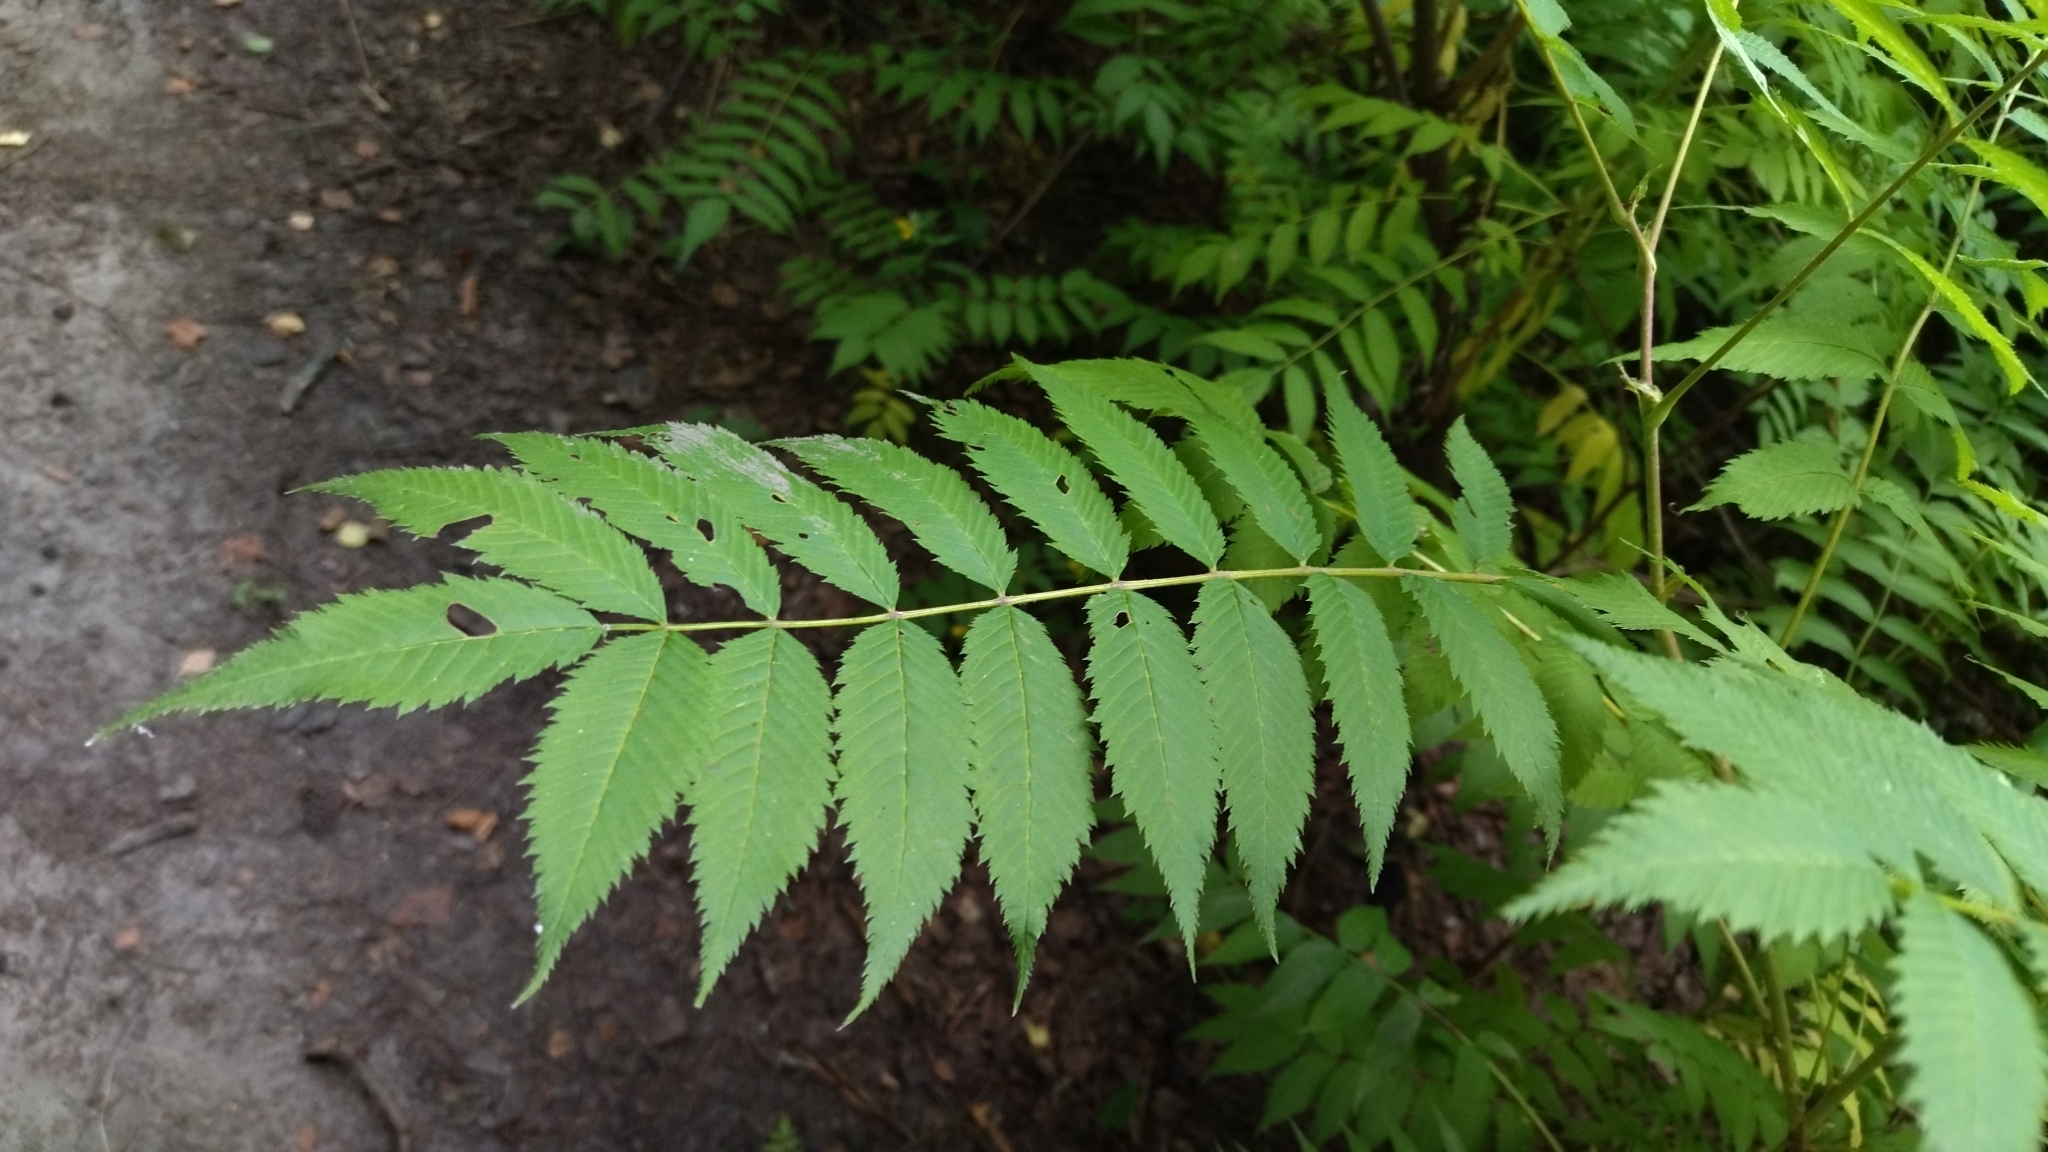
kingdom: Plantae
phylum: Tracheophyta
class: Magnoliopsida
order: Rosales
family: Rosaceae
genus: Sorbaria
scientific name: Sorbaria sorbifolia
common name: False spiraea
